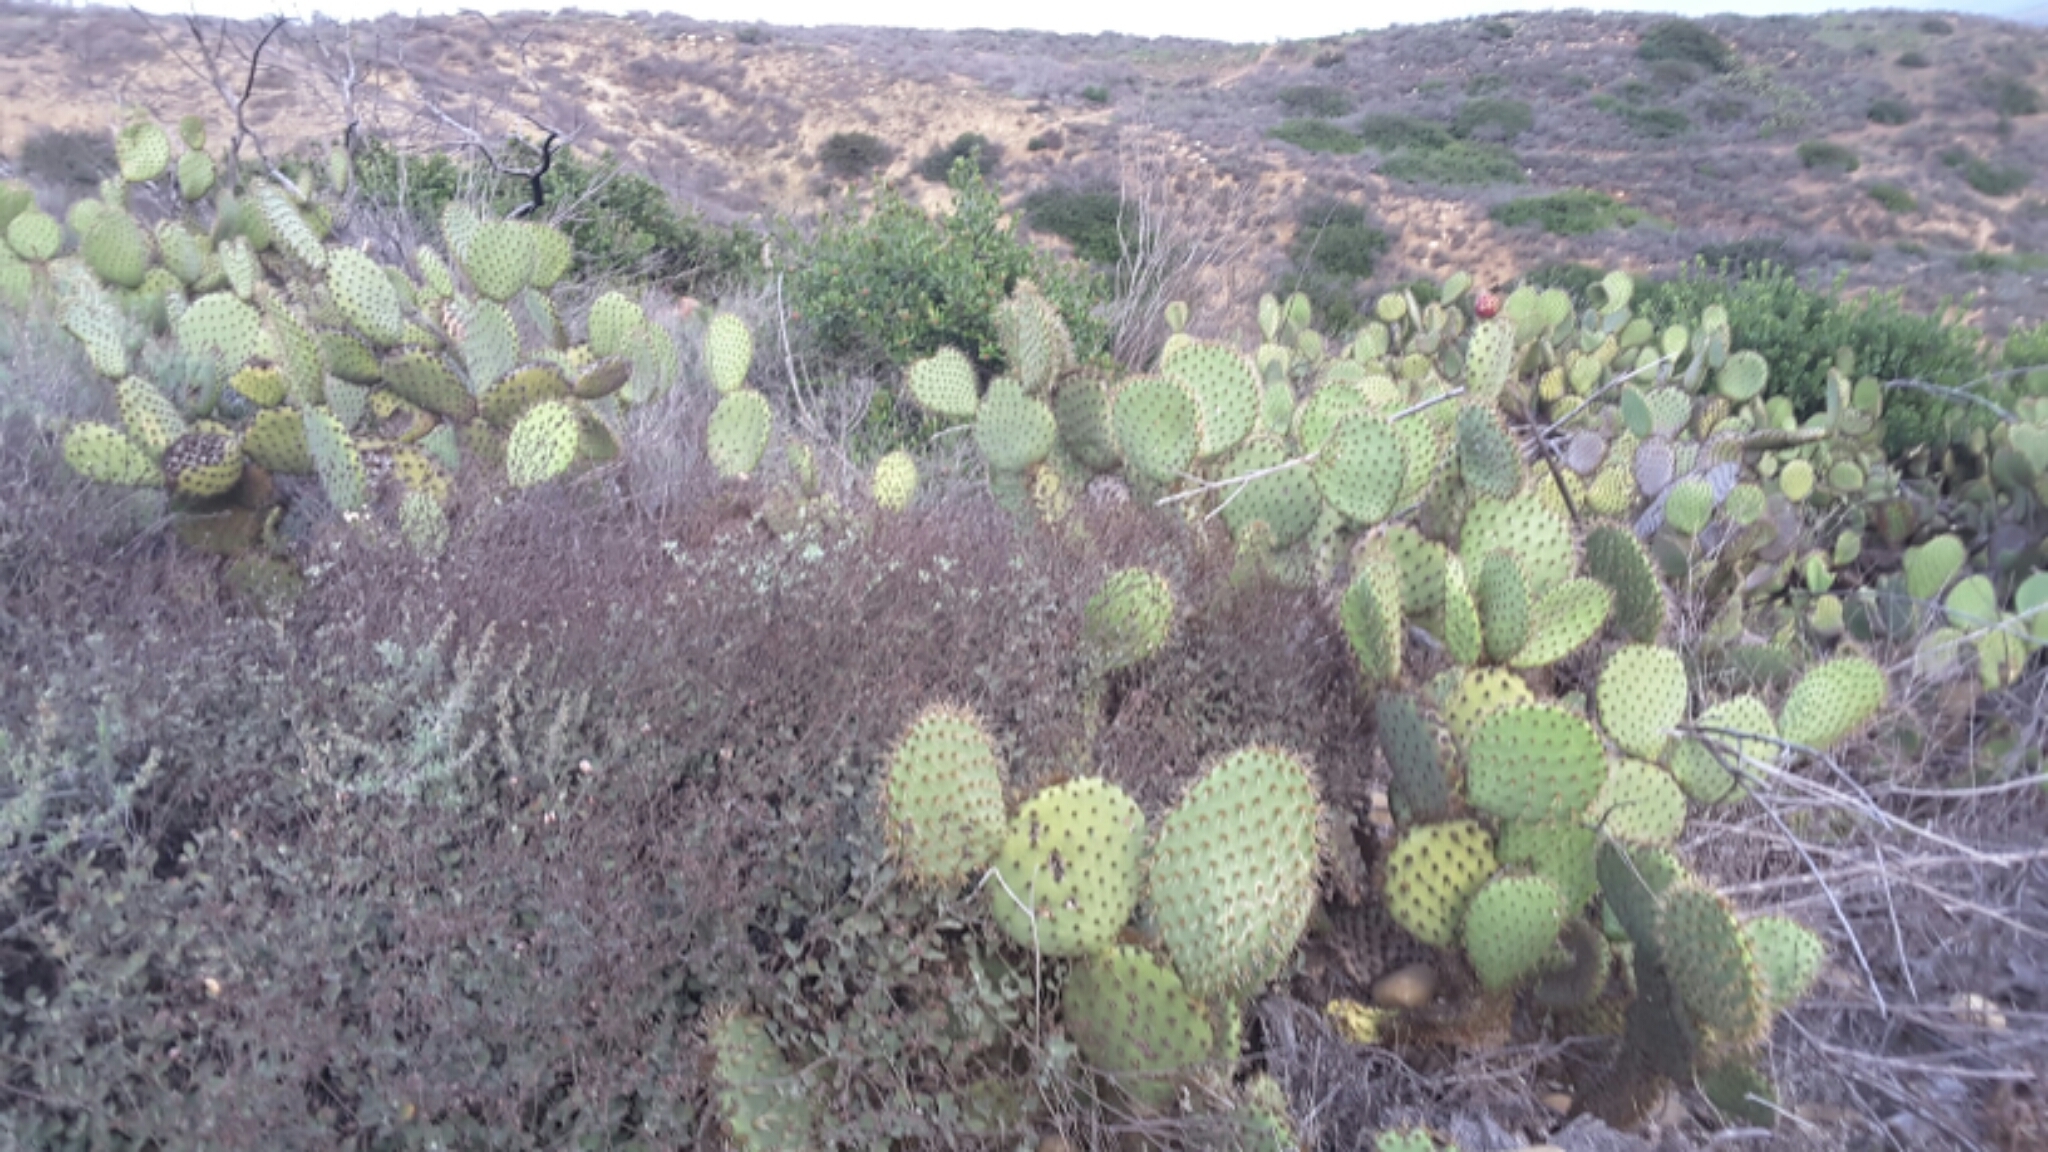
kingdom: Plantae
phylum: Tracheophyta
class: Magnoliopsida
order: Caryophyllales
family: Cactaceae
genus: Opuntia
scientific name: Opuntia oricola
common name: Chaparral prickly-pear
